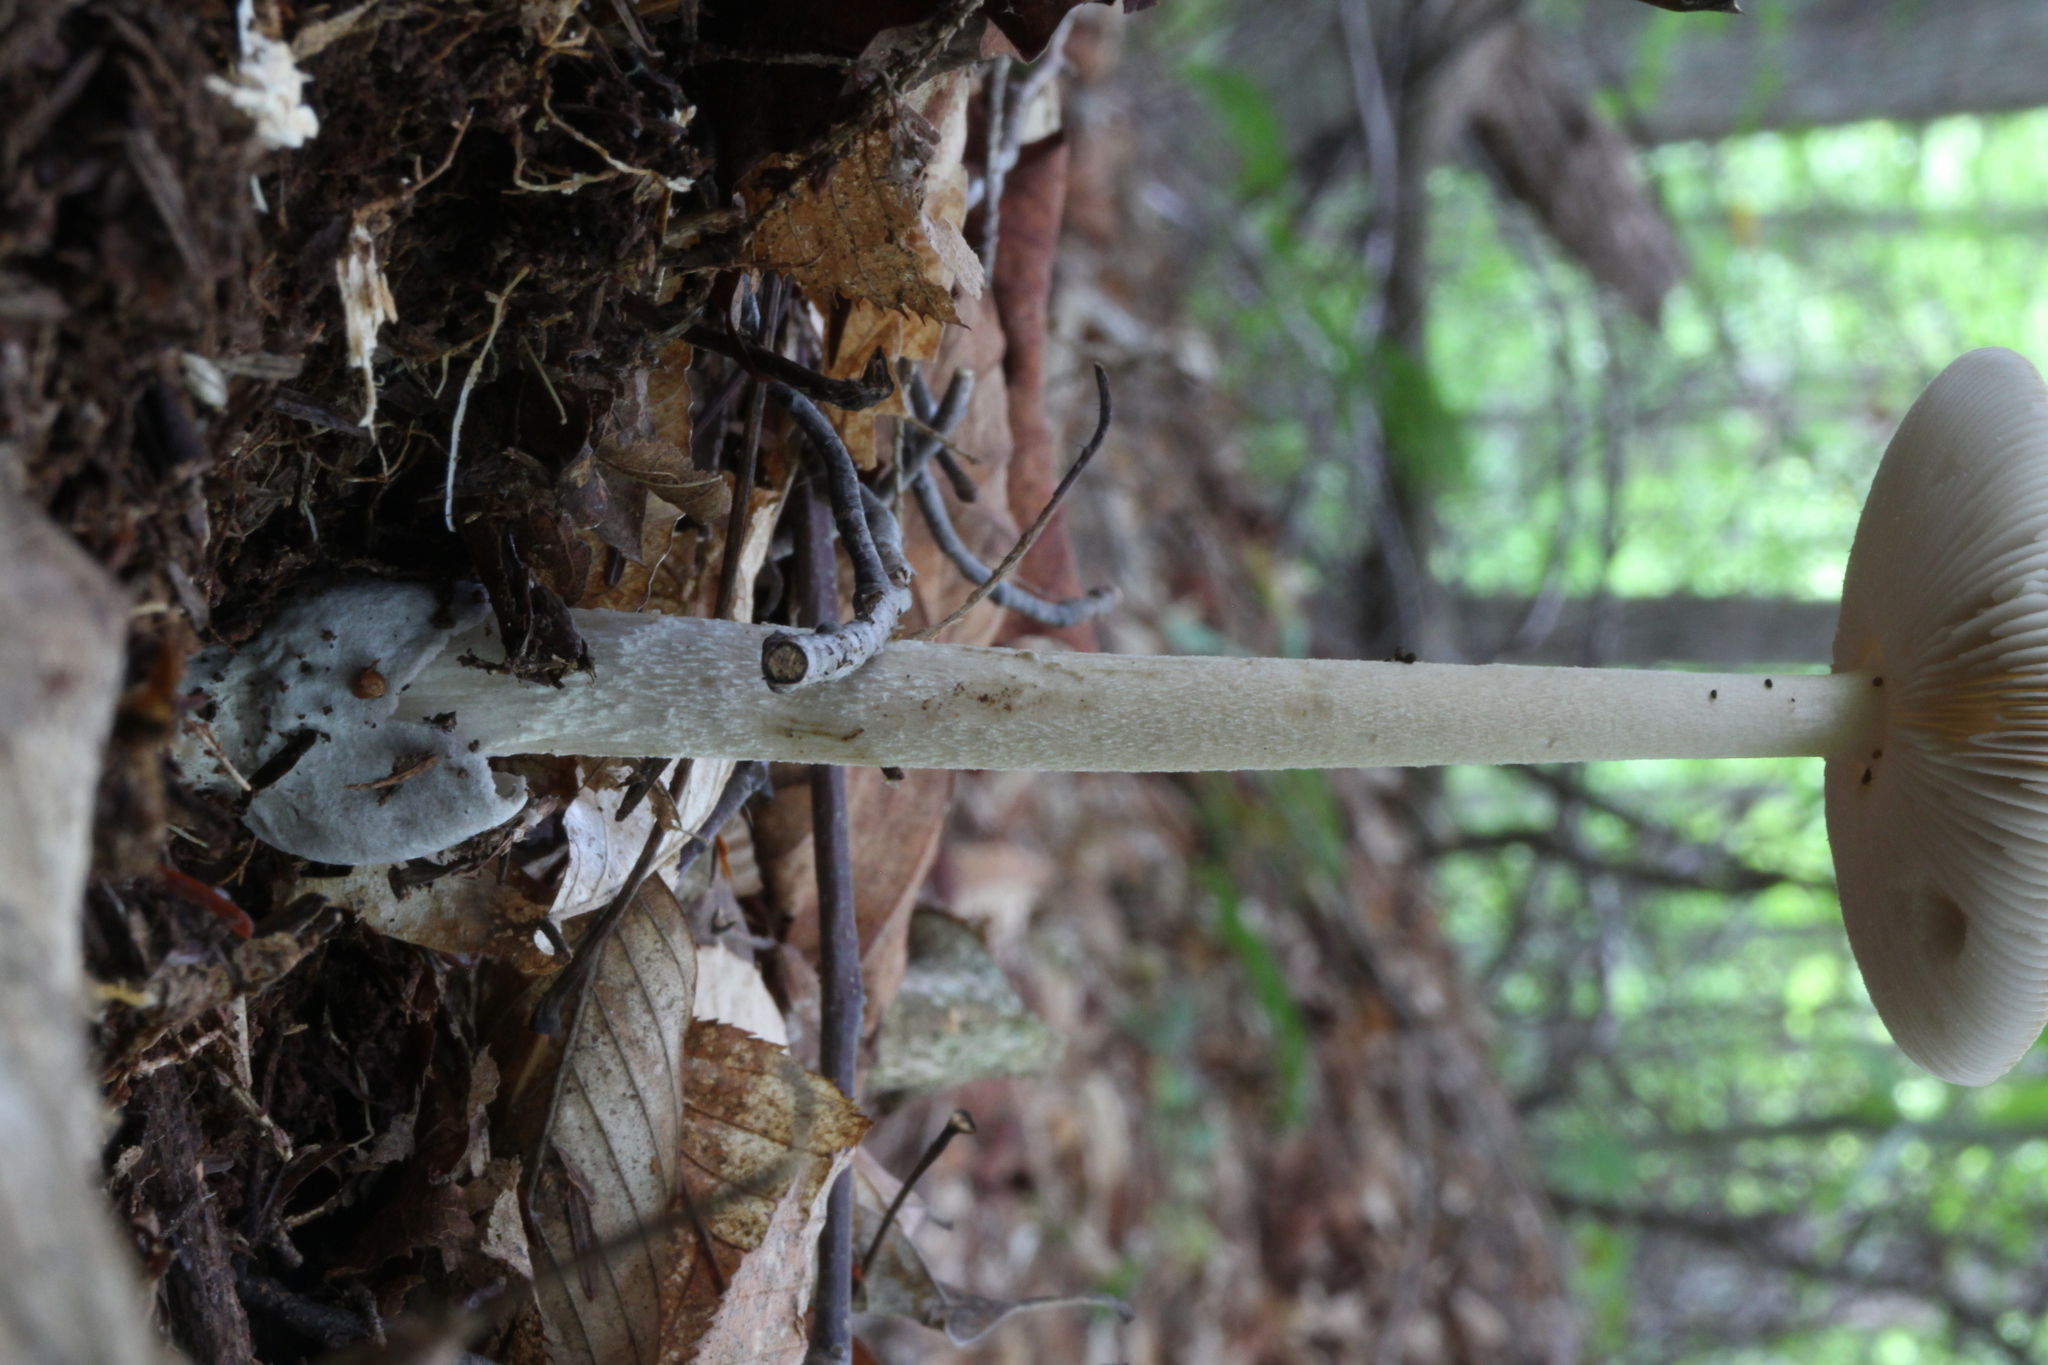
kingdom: Fungi
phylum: Basidiomycota
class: Agaricomycetes
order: Agaricales
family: Amanitaceae
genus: Amanita
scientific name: Amanita sinicoflava
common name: Mandarin yellow ringless amanita
